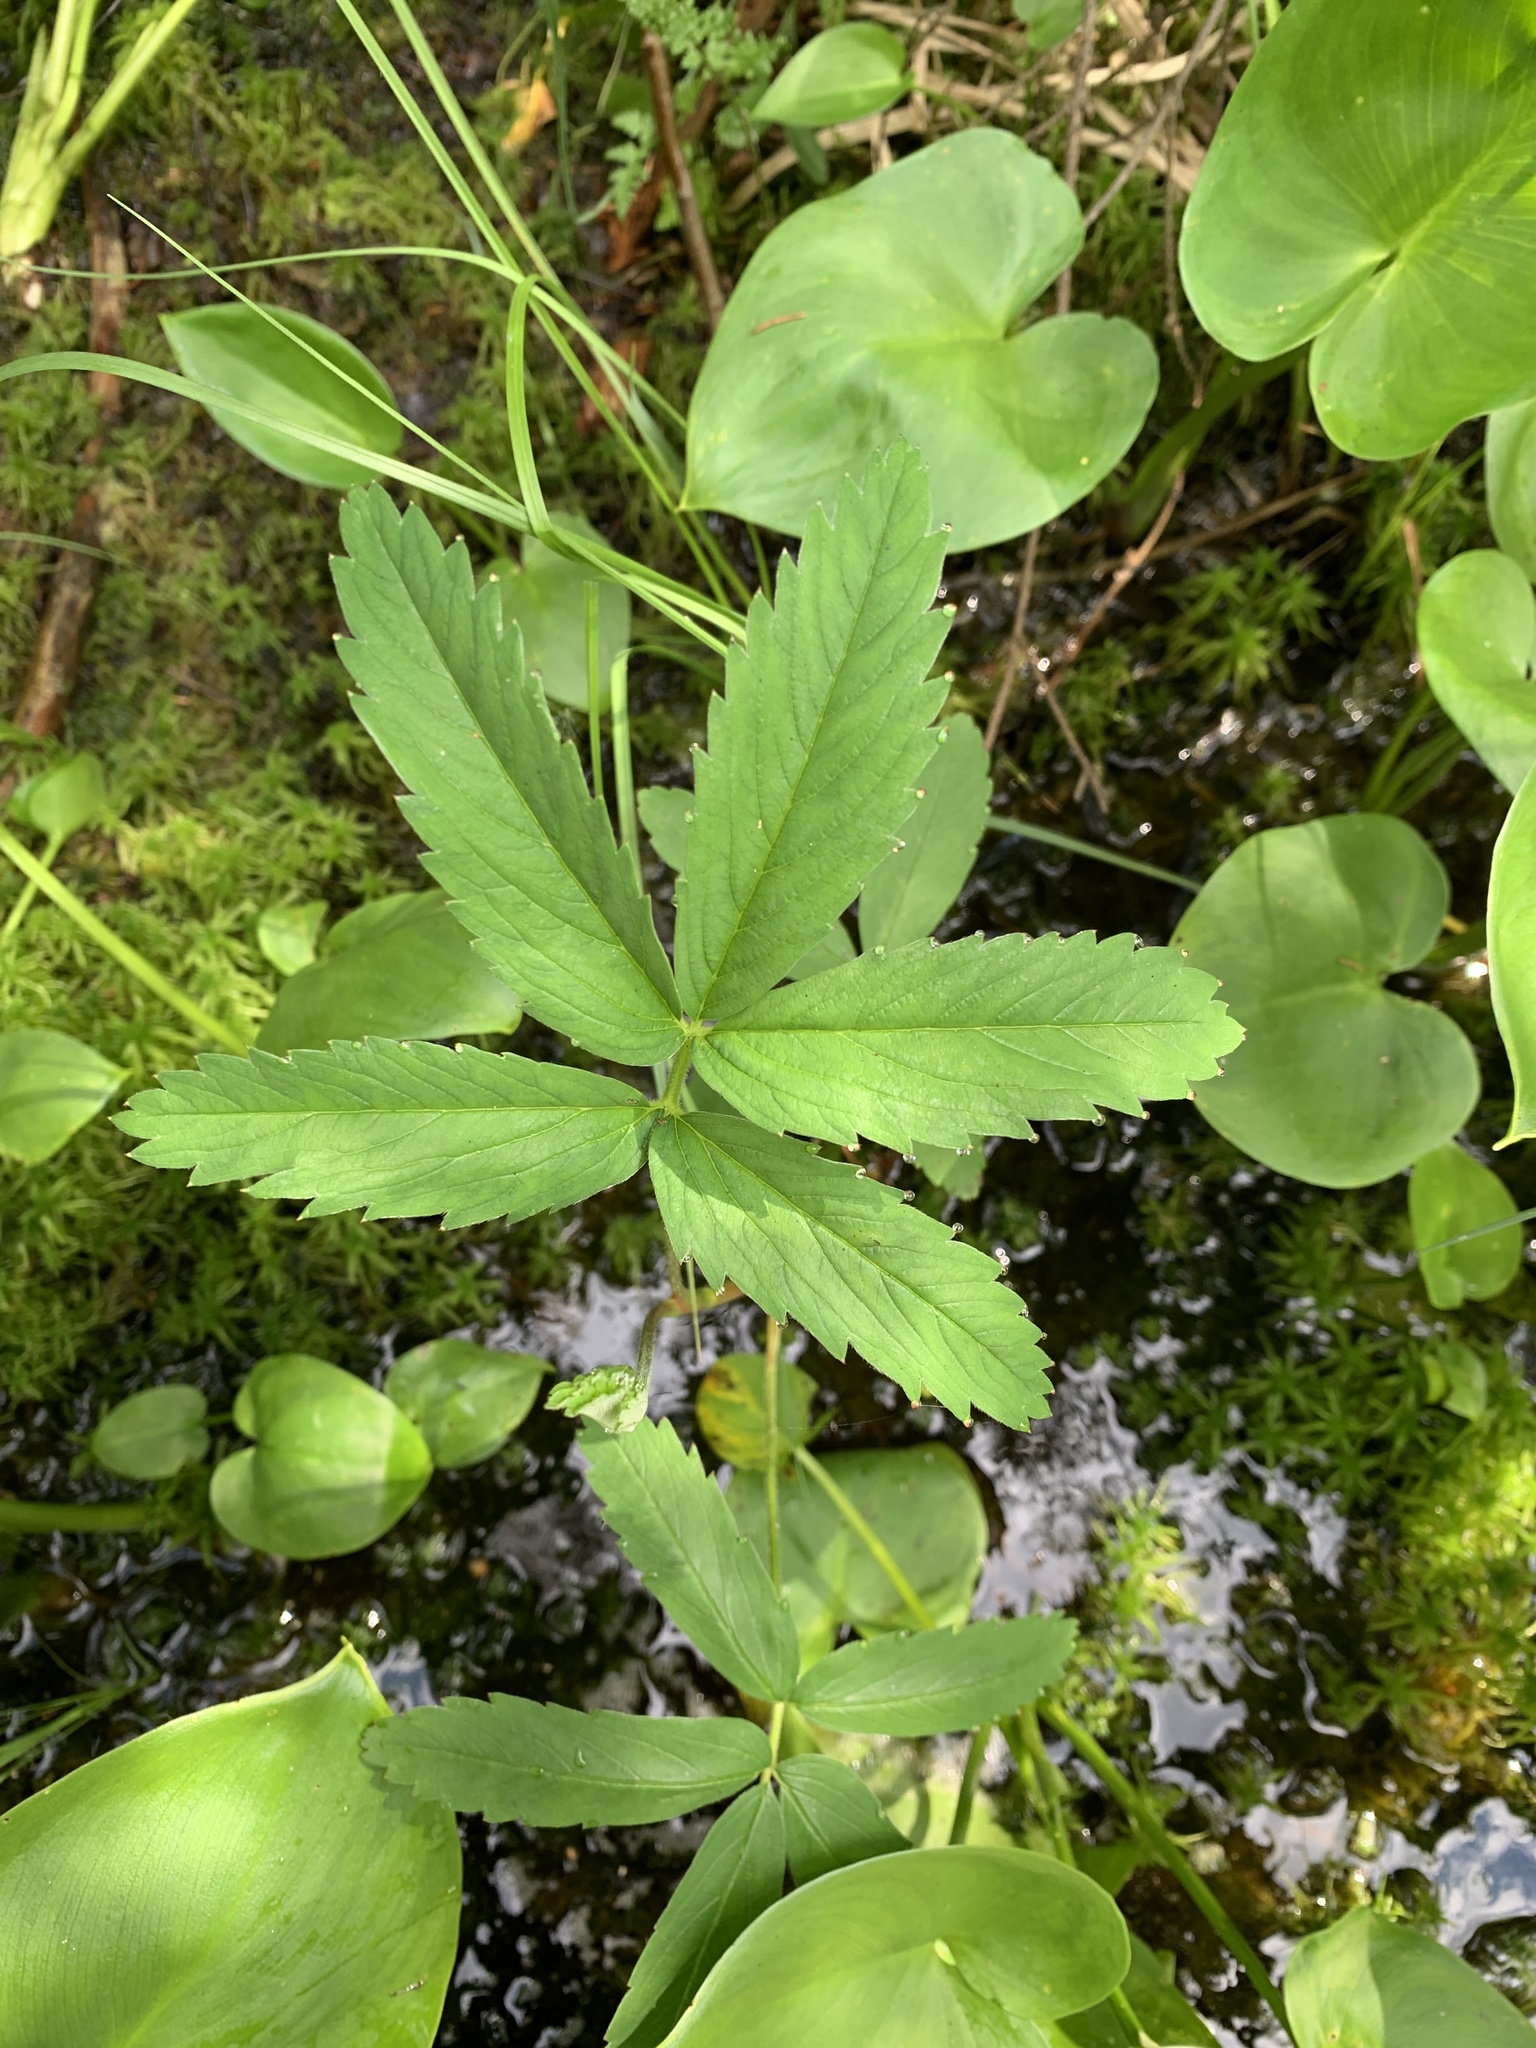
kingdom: Plantae
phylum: Tracheophyta
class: Magnoliopsida
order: Rosales
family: Rosaceae
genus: Comarum
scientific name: Comarum palustre
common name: Marsh cinquefoil
